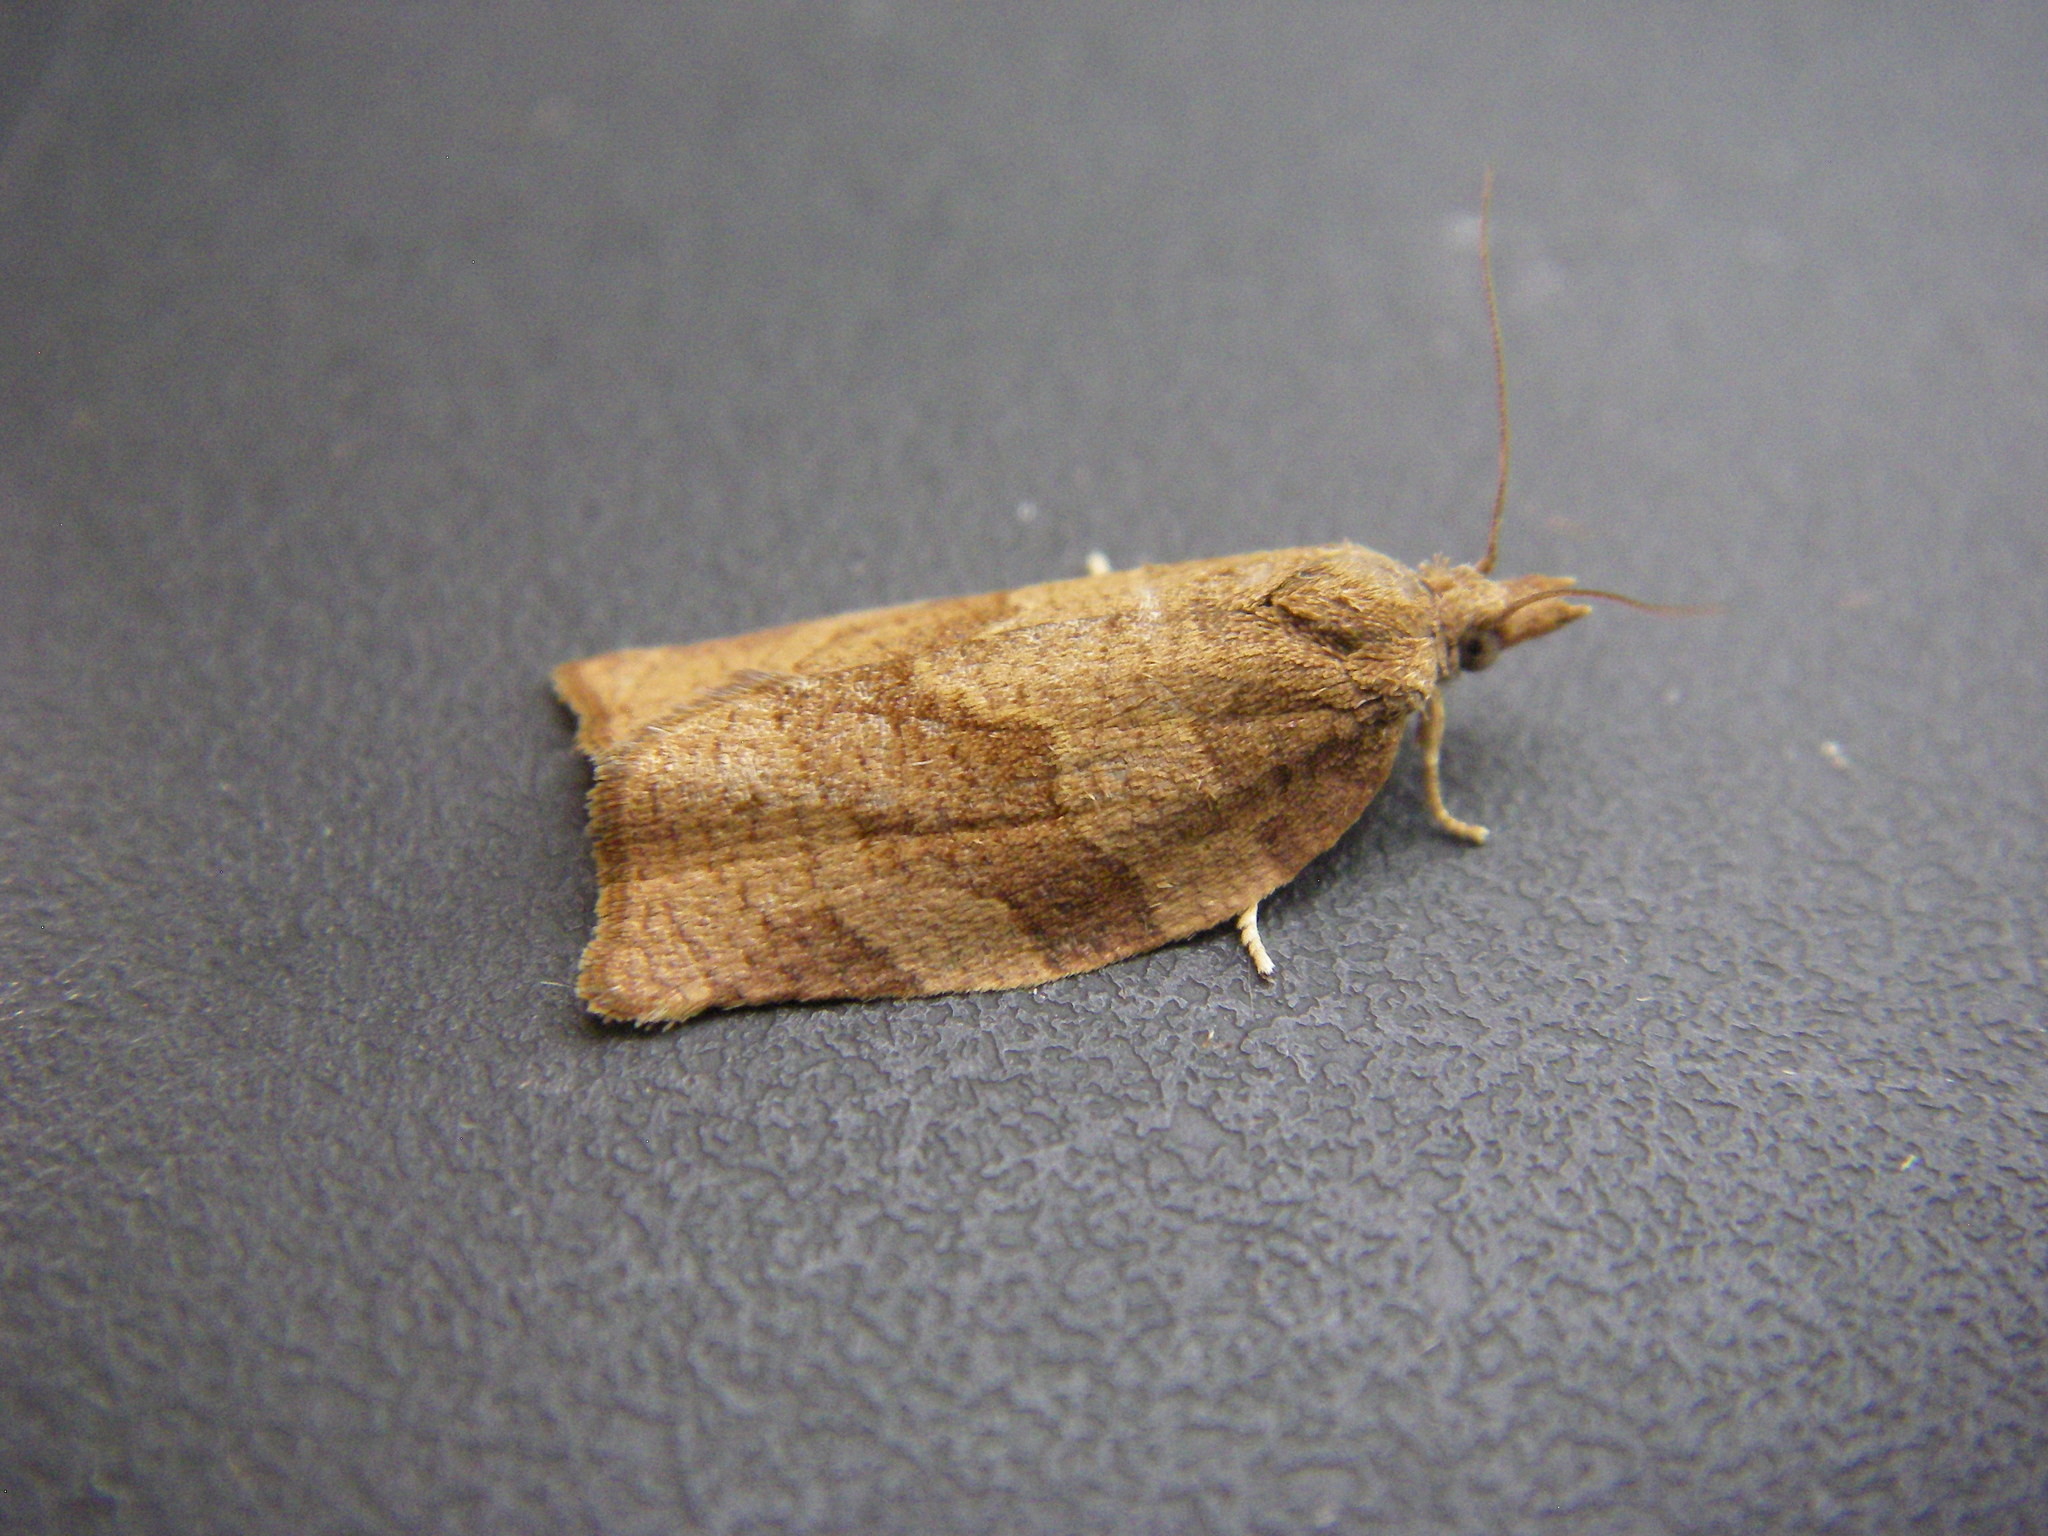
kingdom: Animalia
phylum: Arthropoda
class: Insecta
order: Lepidoptera
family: Tortricidae
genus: Pandemis
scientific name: Pandemis heparana
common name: Dark fruit-tree tortrix
